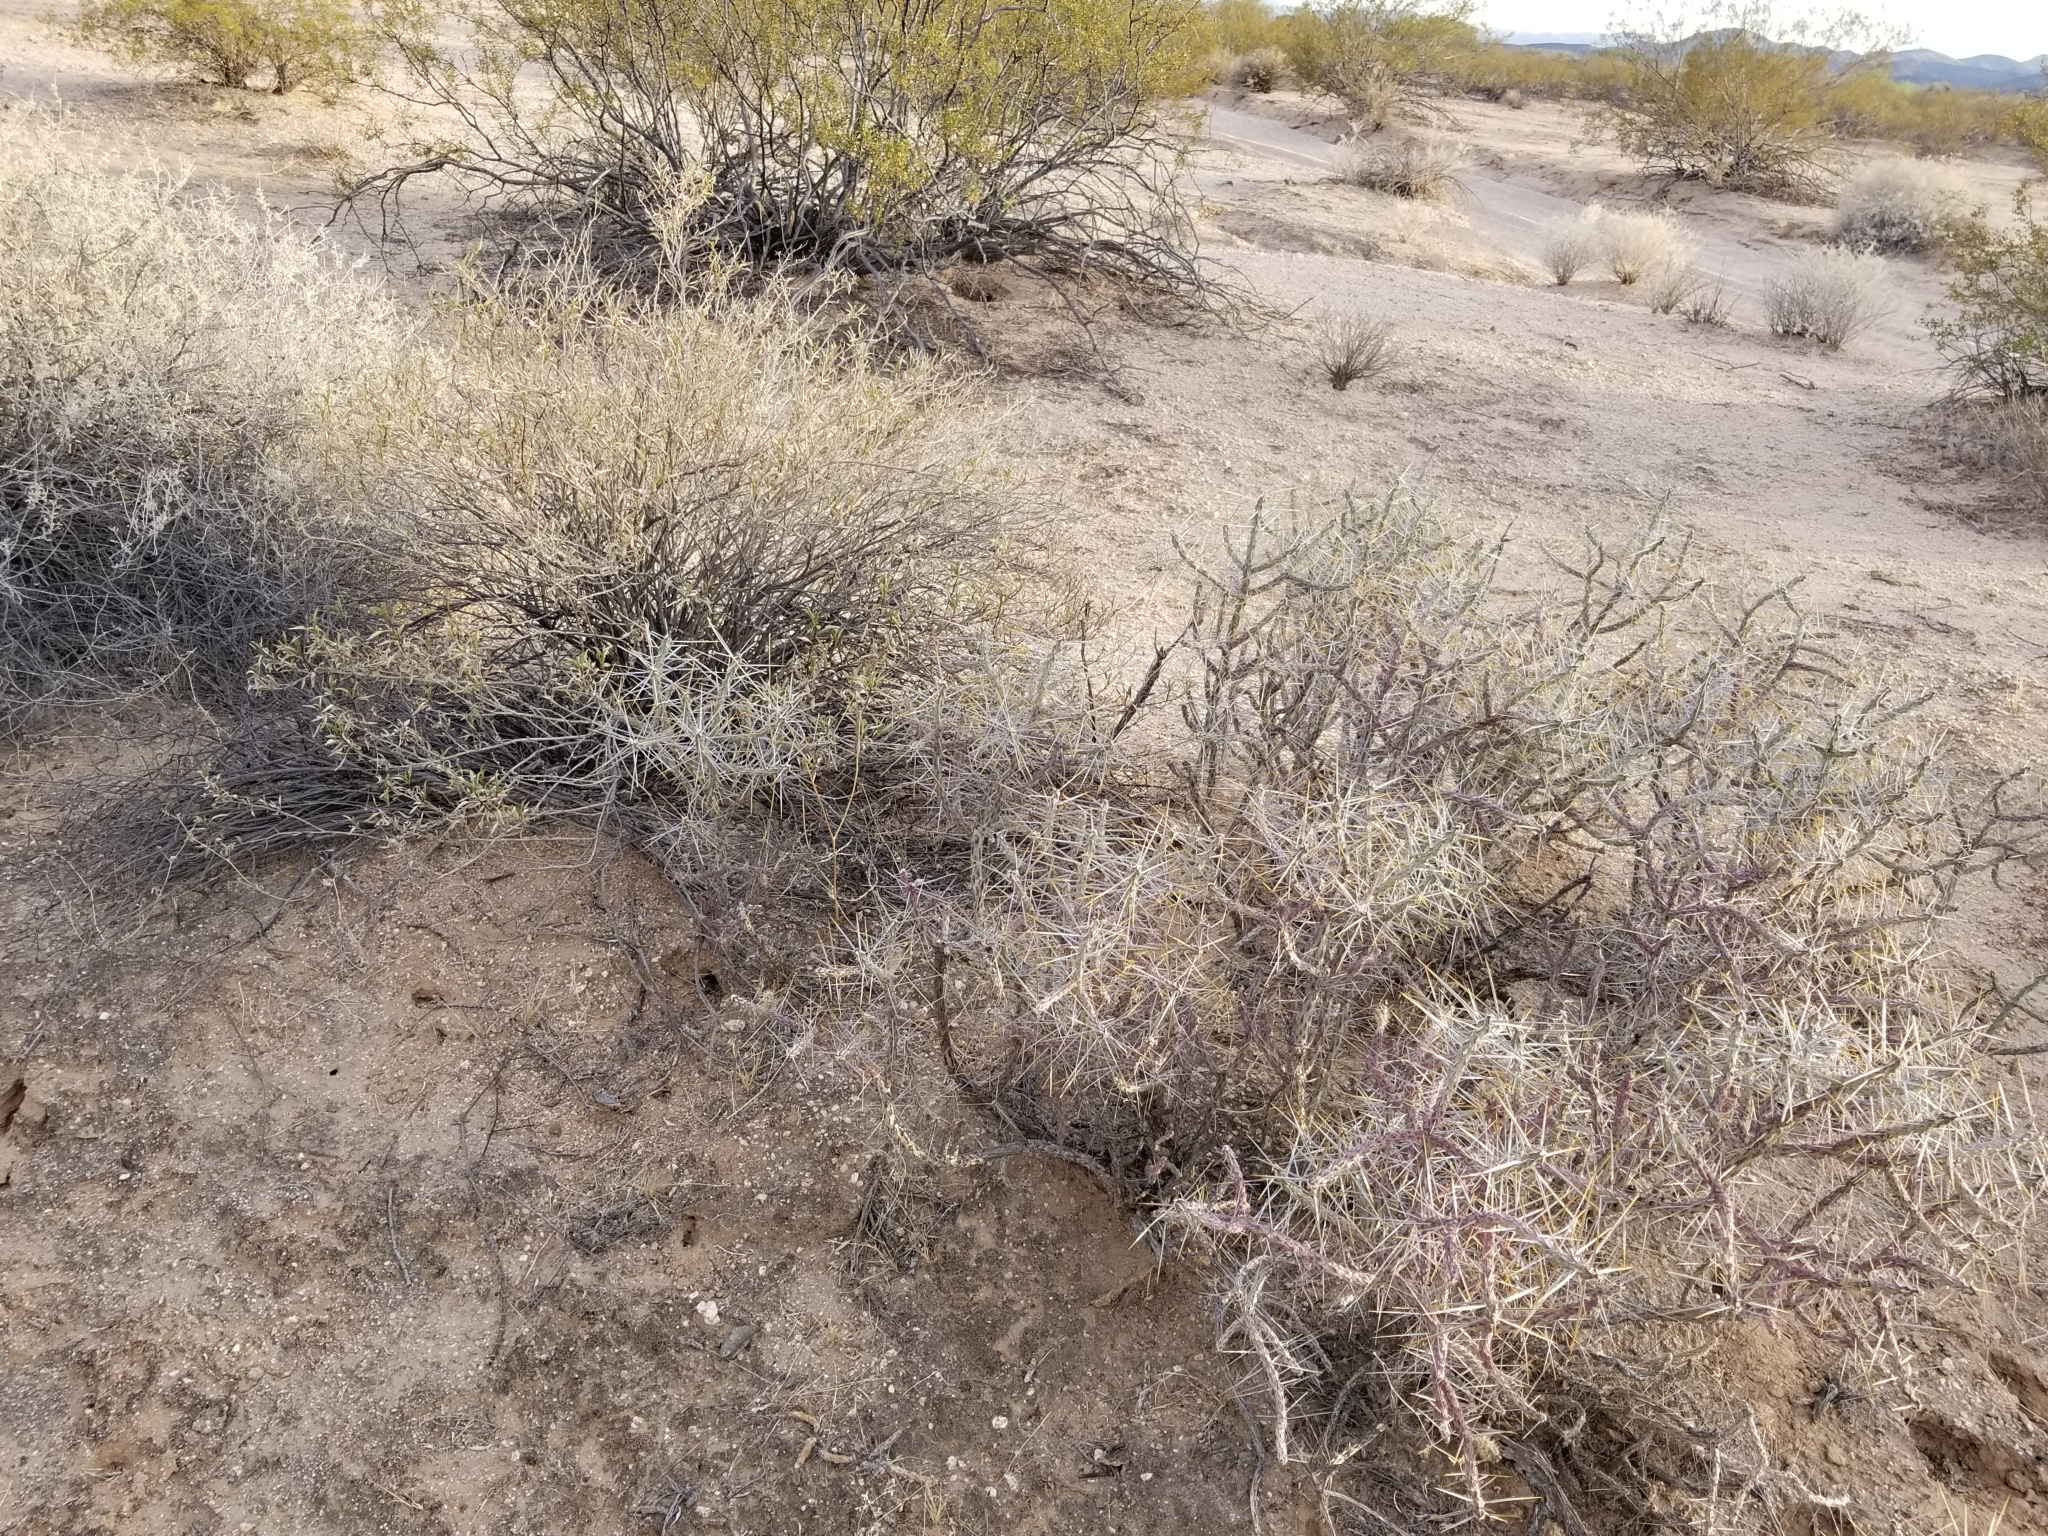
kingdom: Plantae
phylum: Tracheophyta
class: Magnoliopsida
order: Caryophyllales
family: Cactaceae
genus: Cylindropuntia
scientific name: Cylindropuntia ramosissima
